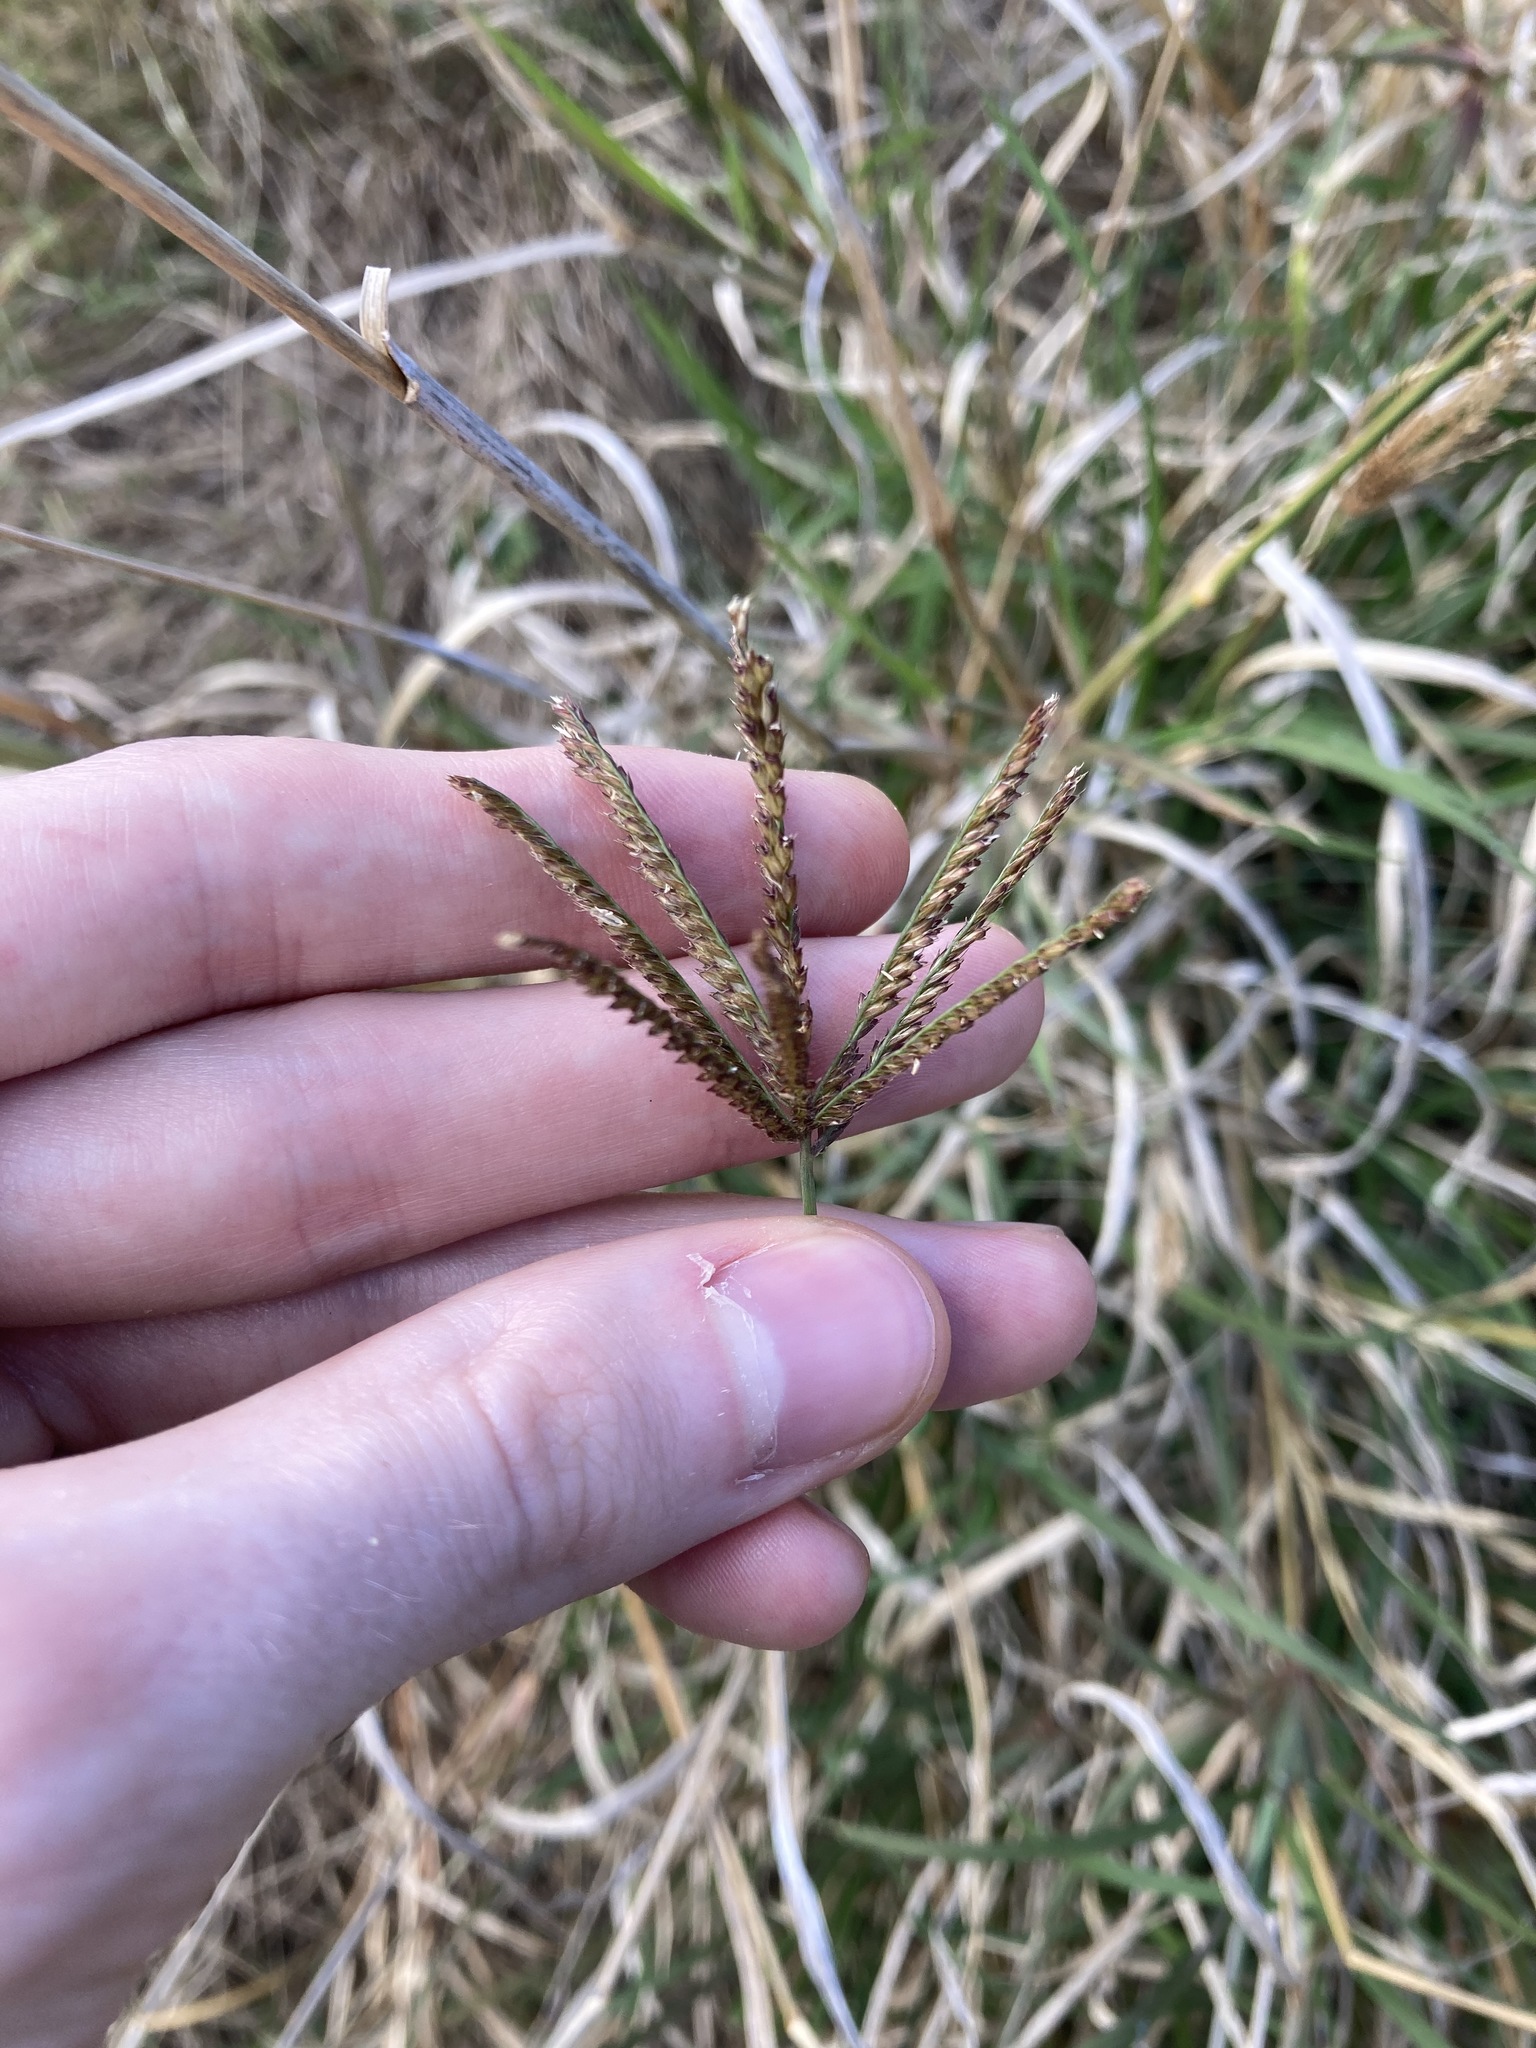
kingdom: Plantae
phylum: Tracheophyta
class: Liliopsida
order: Poales
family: Poaceae
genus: Chloris
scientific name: Chloris gayana
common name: Rhodes grass
